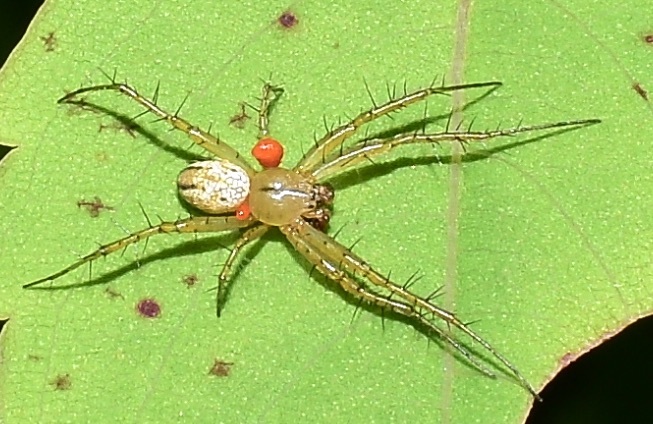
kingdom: Animalia
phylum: Arthropoda
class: Arachnida
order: Araneae
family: Araneidae
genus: Mangora
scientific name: Mangora gibberosa
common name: Lined orbweaver
